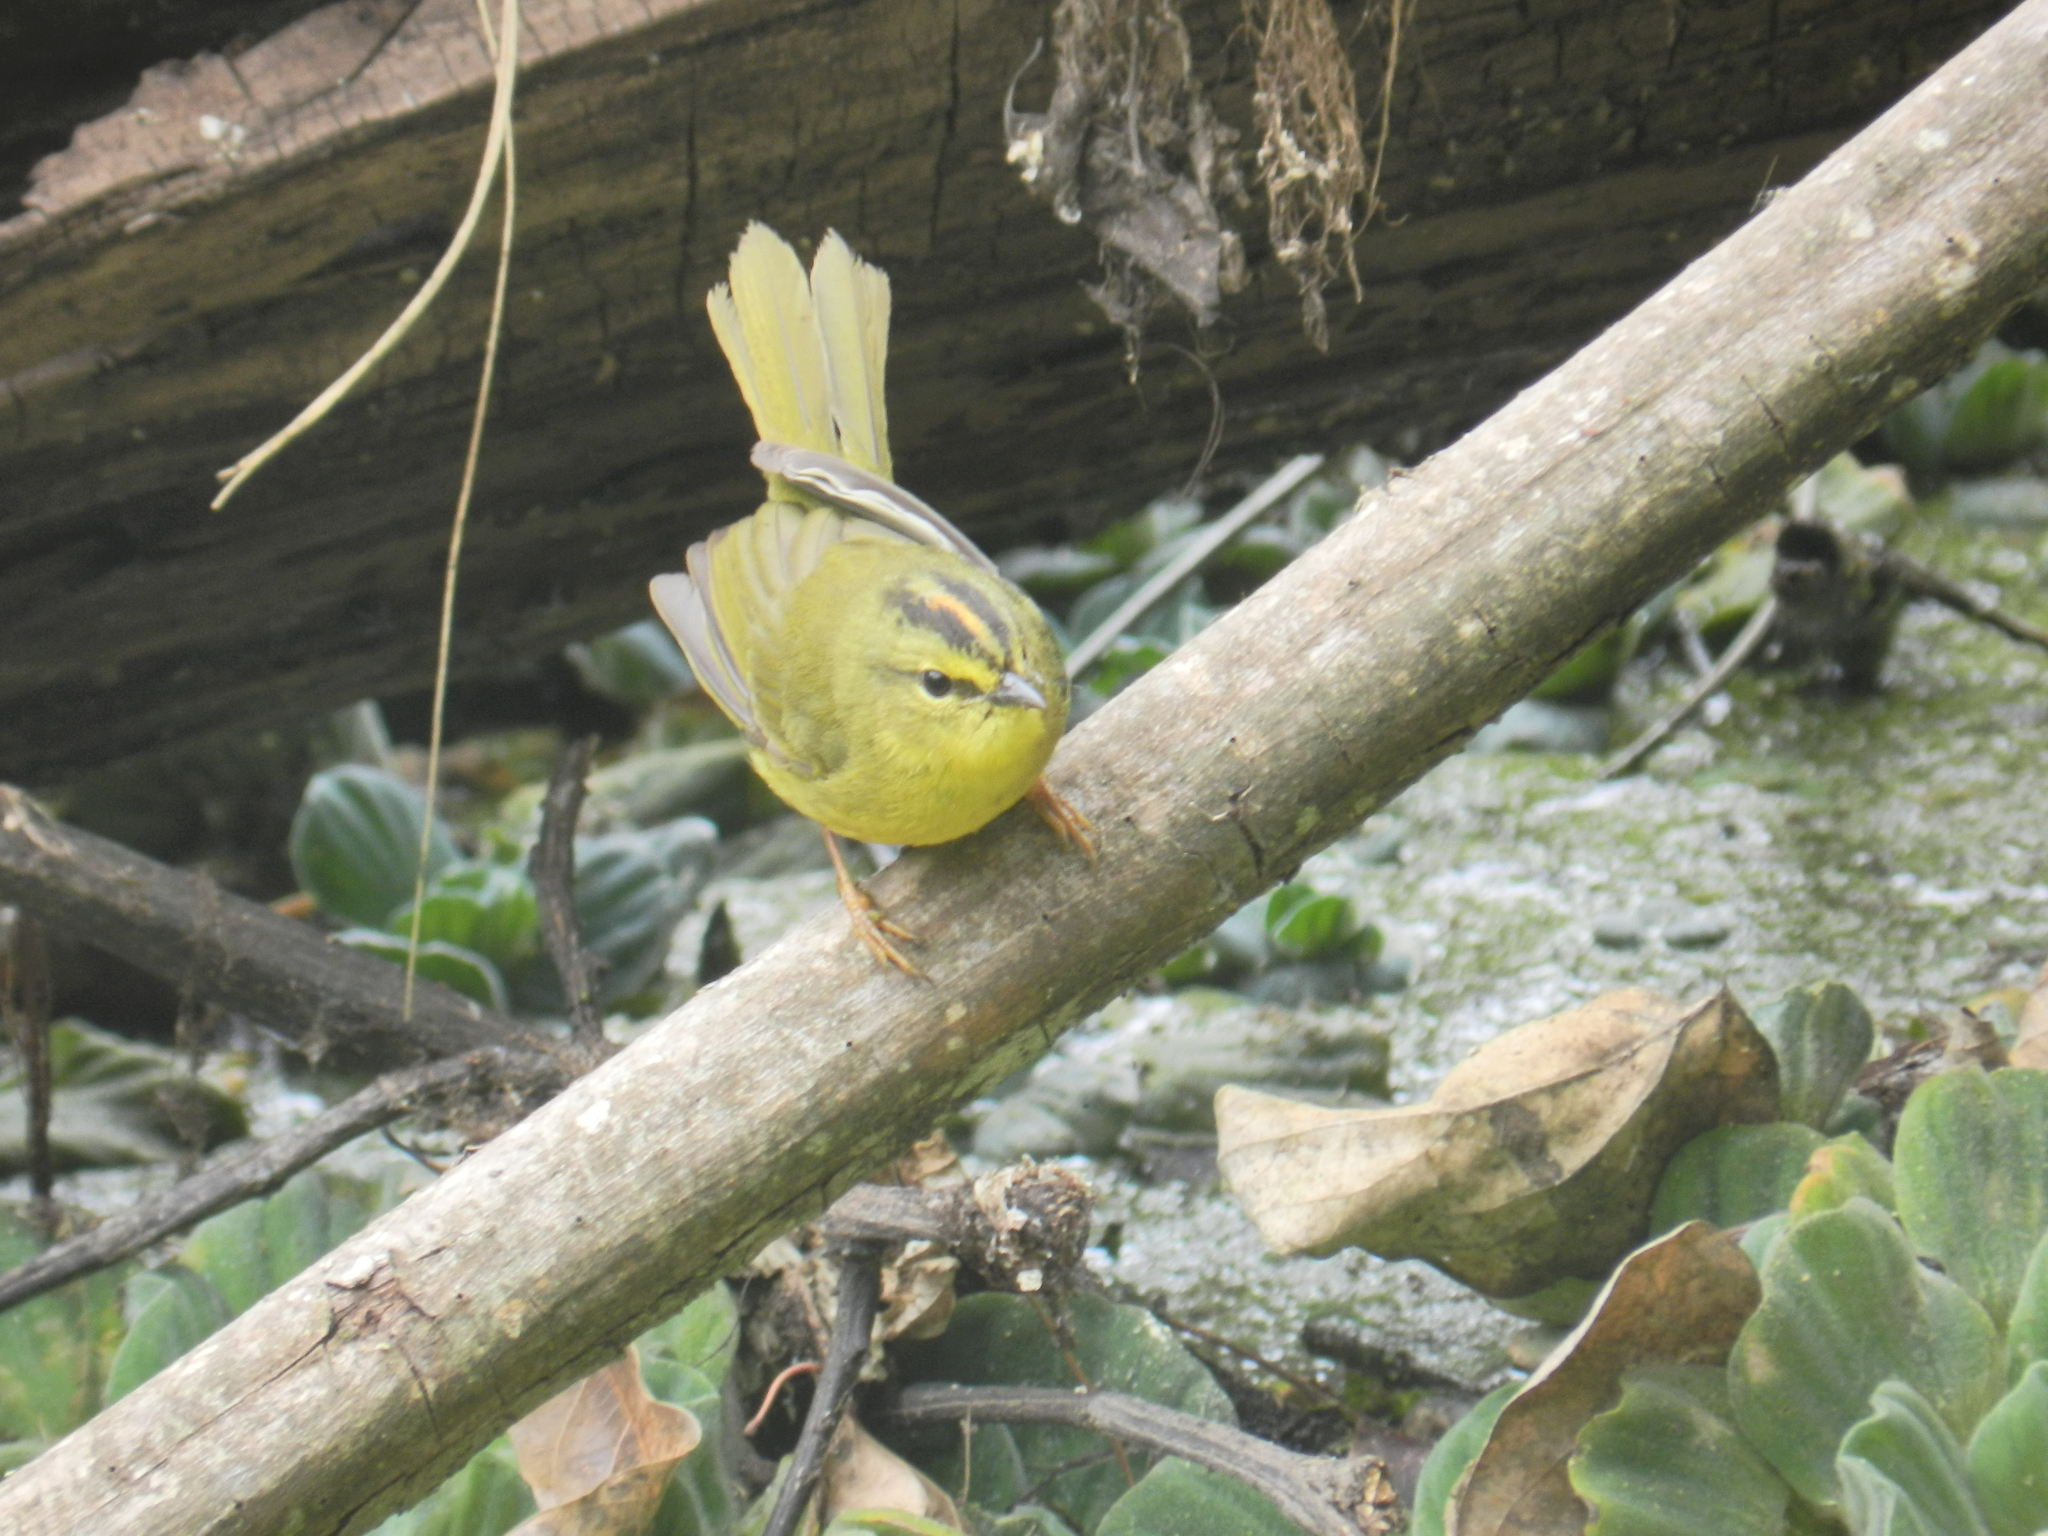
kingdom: Animalia
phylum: Chordata
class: Aves
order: Passeriformes
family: Parulidae
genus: Myiothlypis
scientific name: Myiothlypis bivittata
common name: Two-banded warbler
